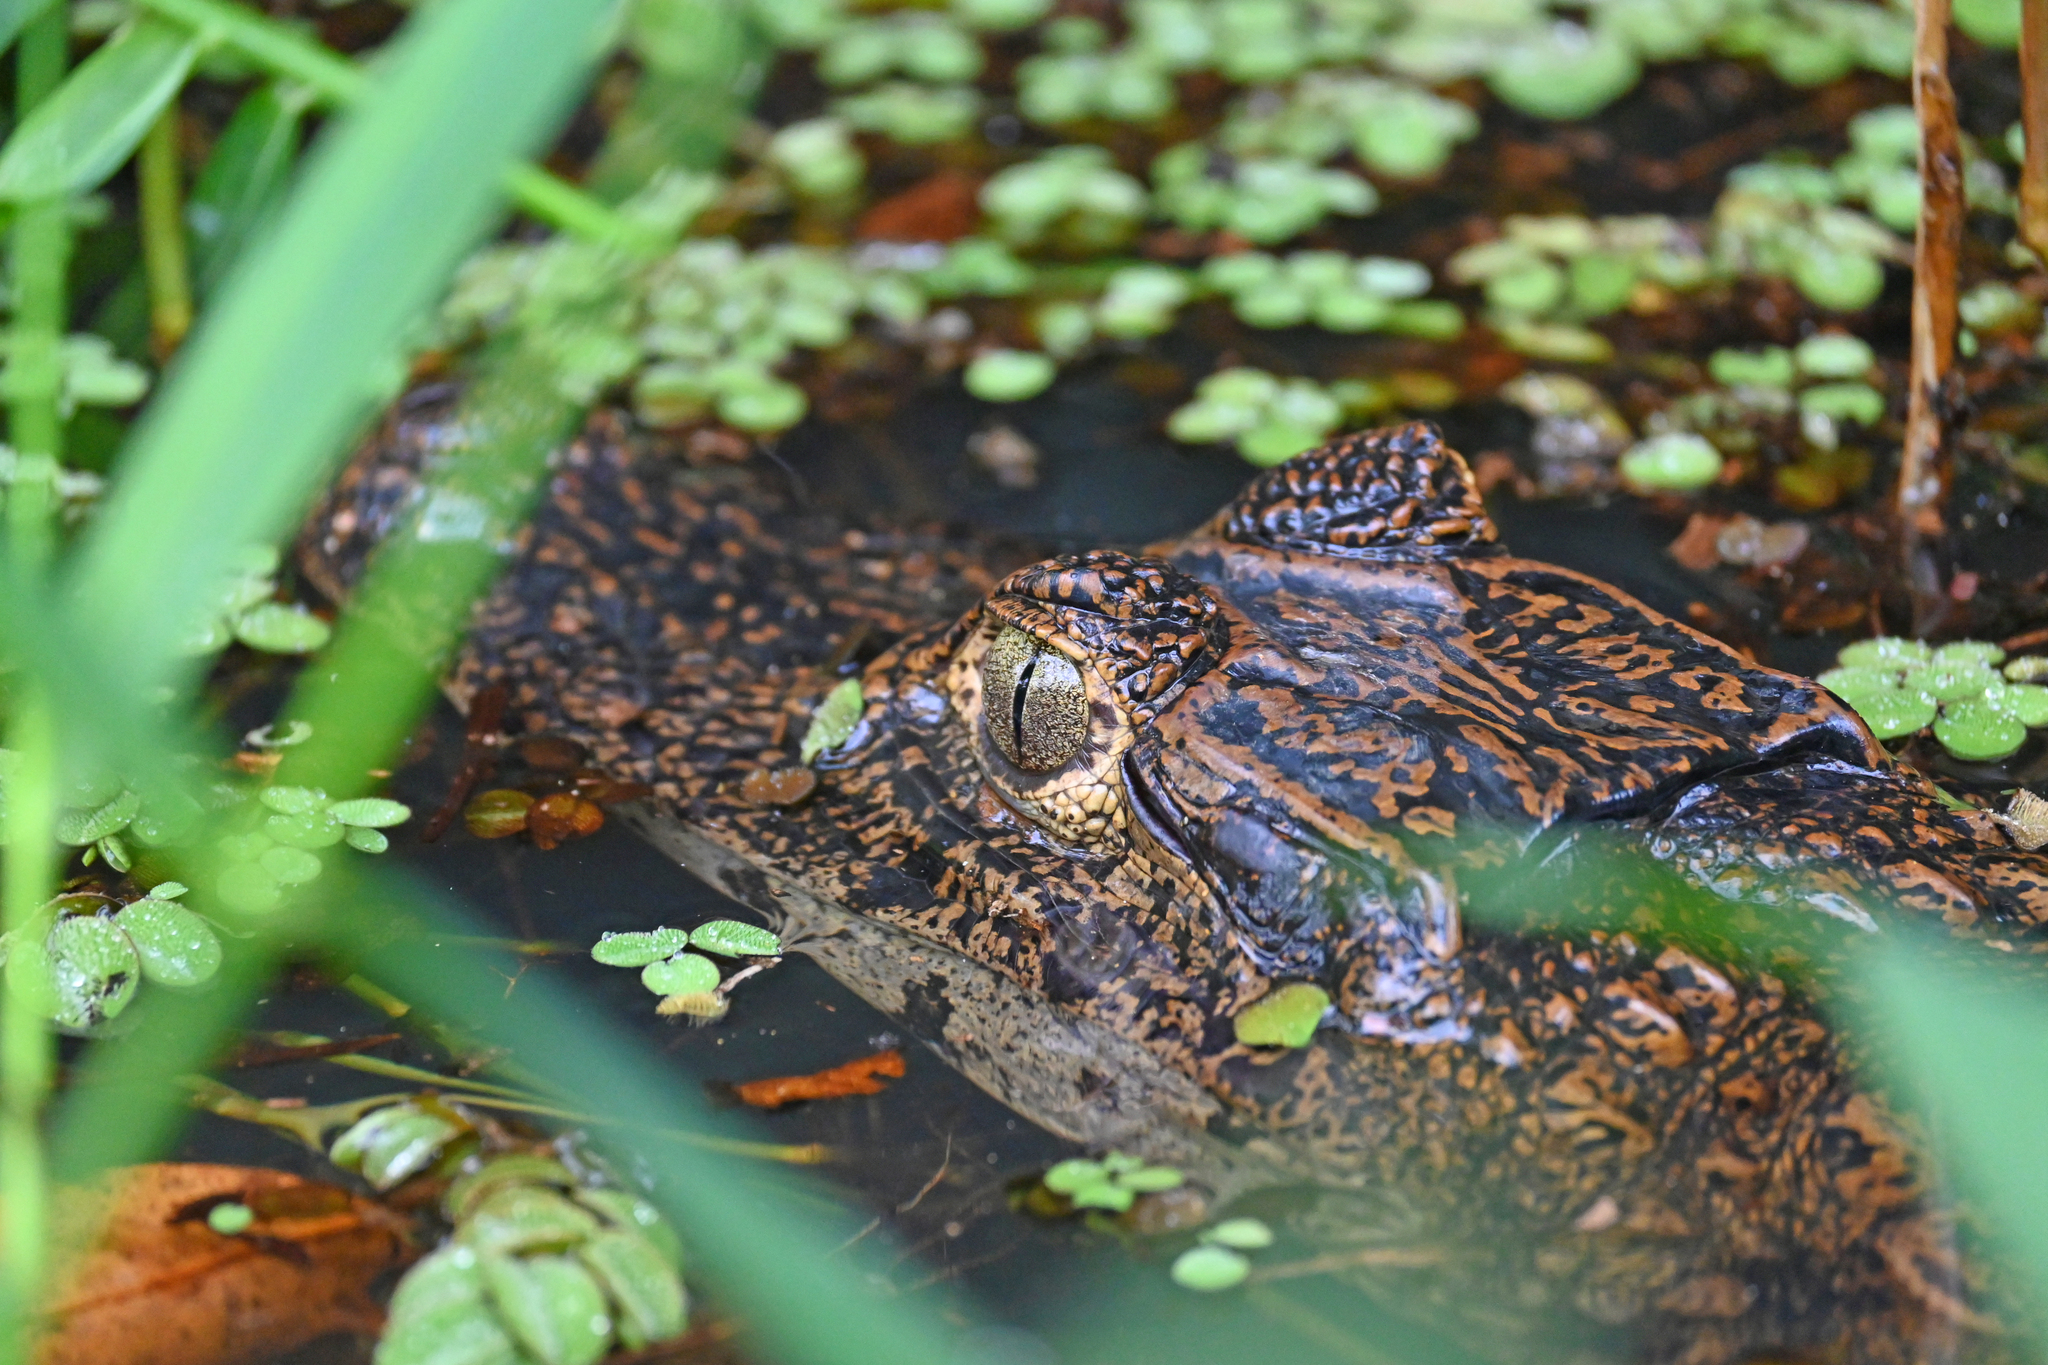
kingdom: Animalia
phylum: Chordata
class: Crocodylia
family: Alligatoridae
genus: Caiman
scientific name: Caiman crocodilus
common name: Common caiman
